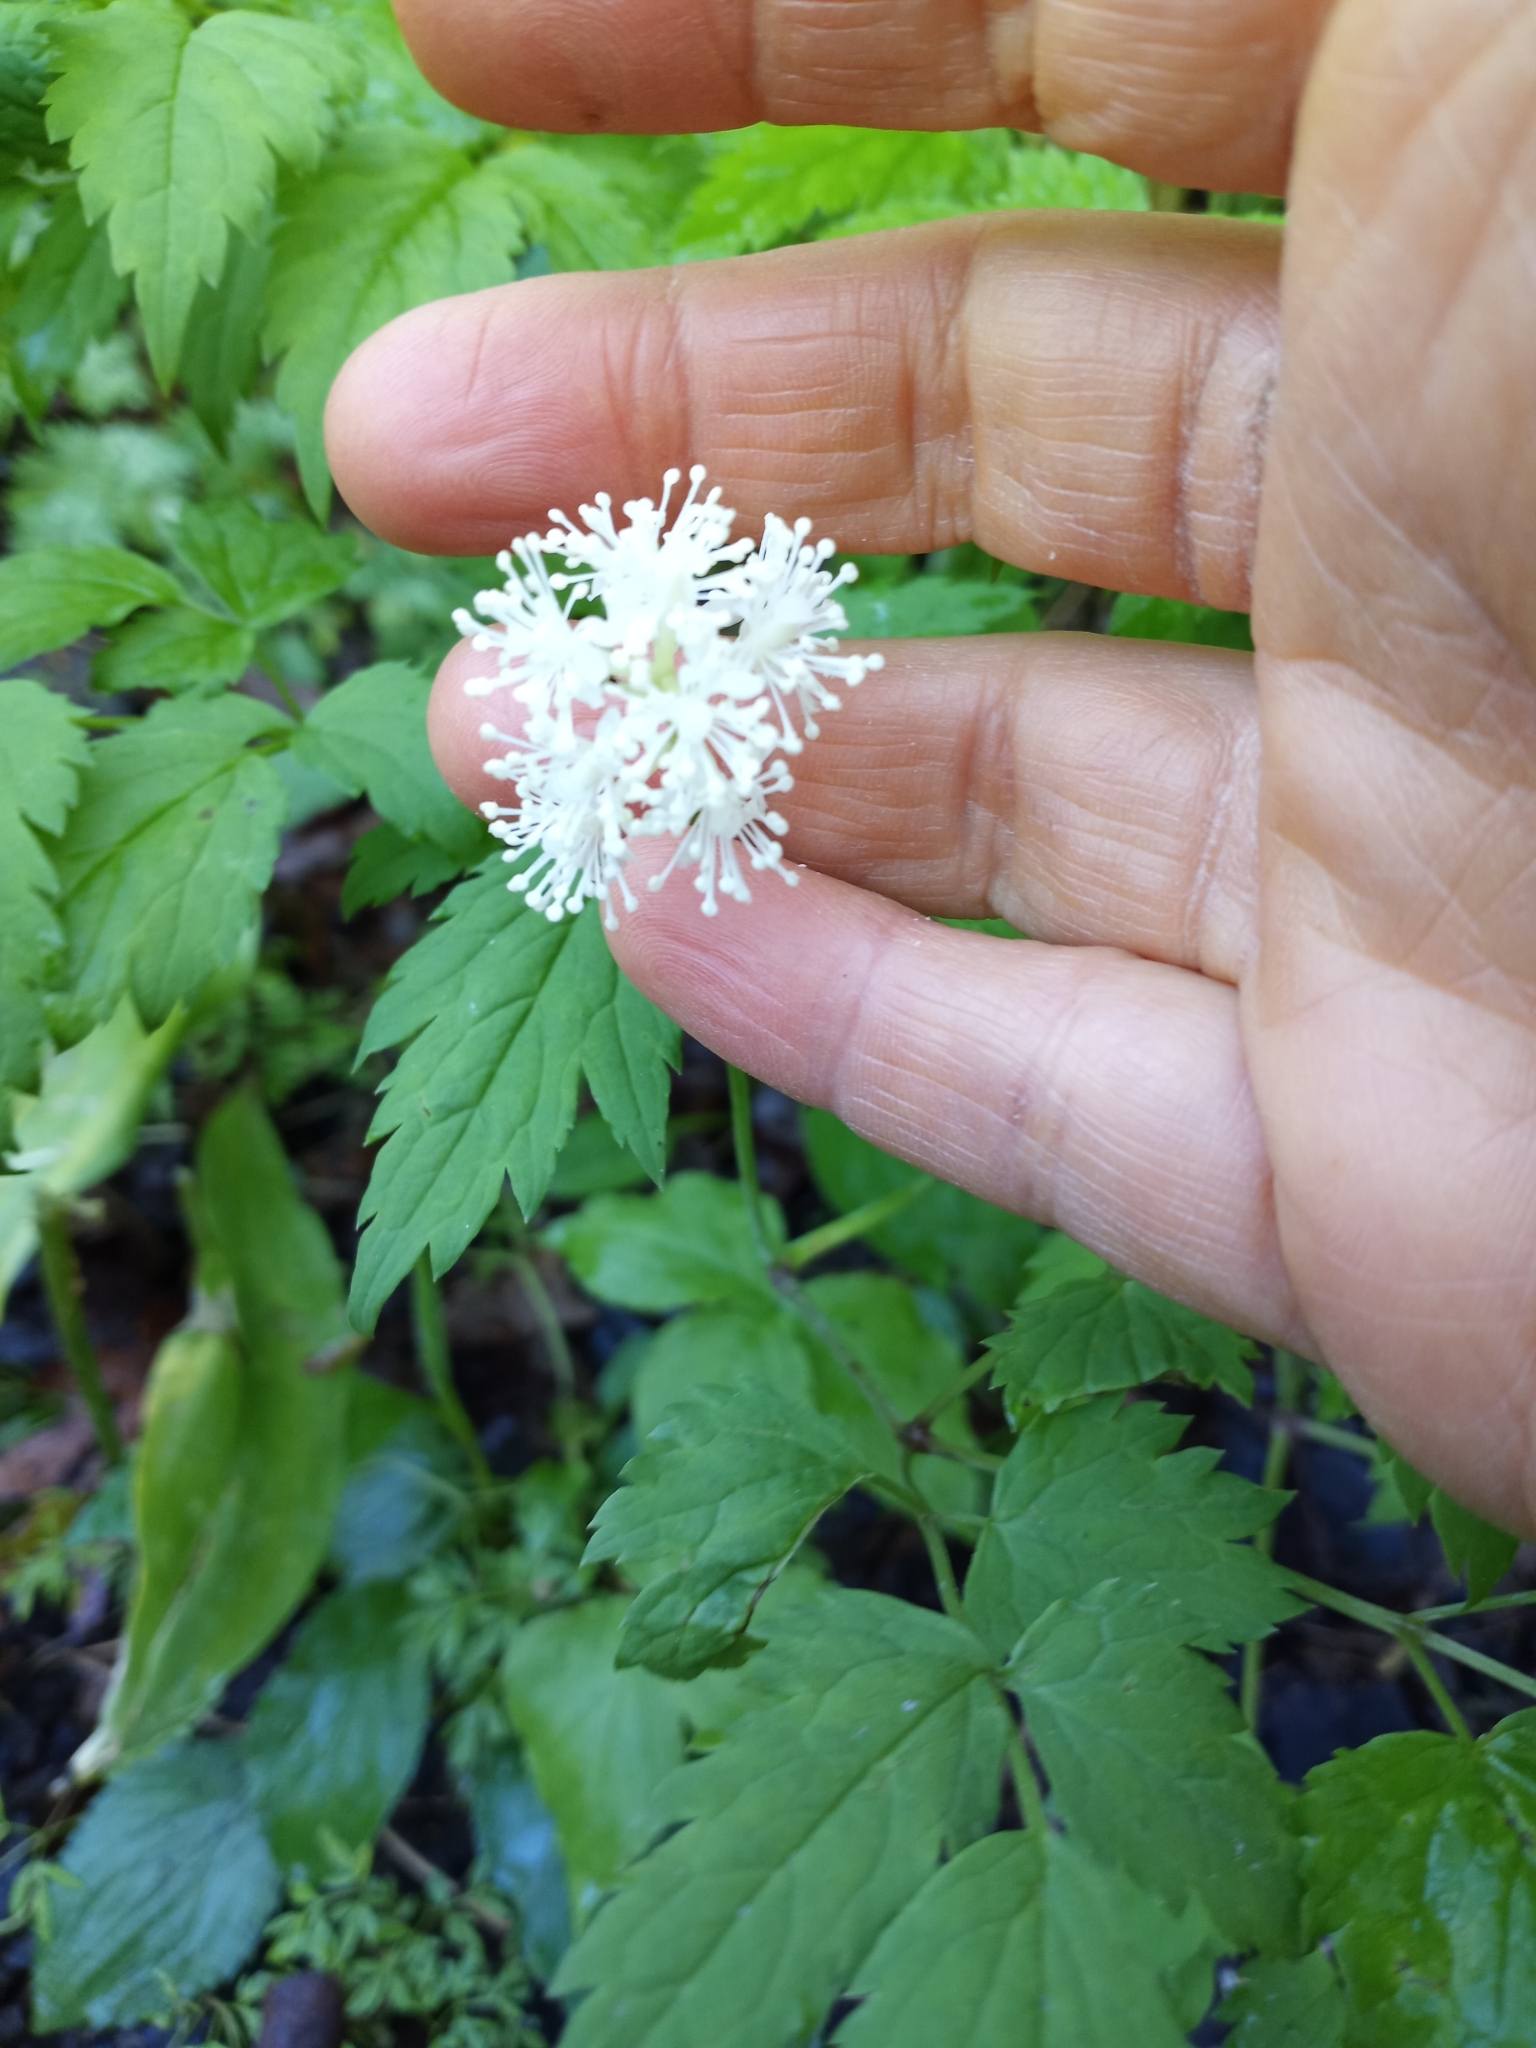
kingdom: Plantae
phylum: Tracheophyta
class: Magnoliopsida
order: Ranunculales
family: Ranunculaceae
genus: Actaea
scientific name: Actaea pachypoda
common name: Doll's-eyes
